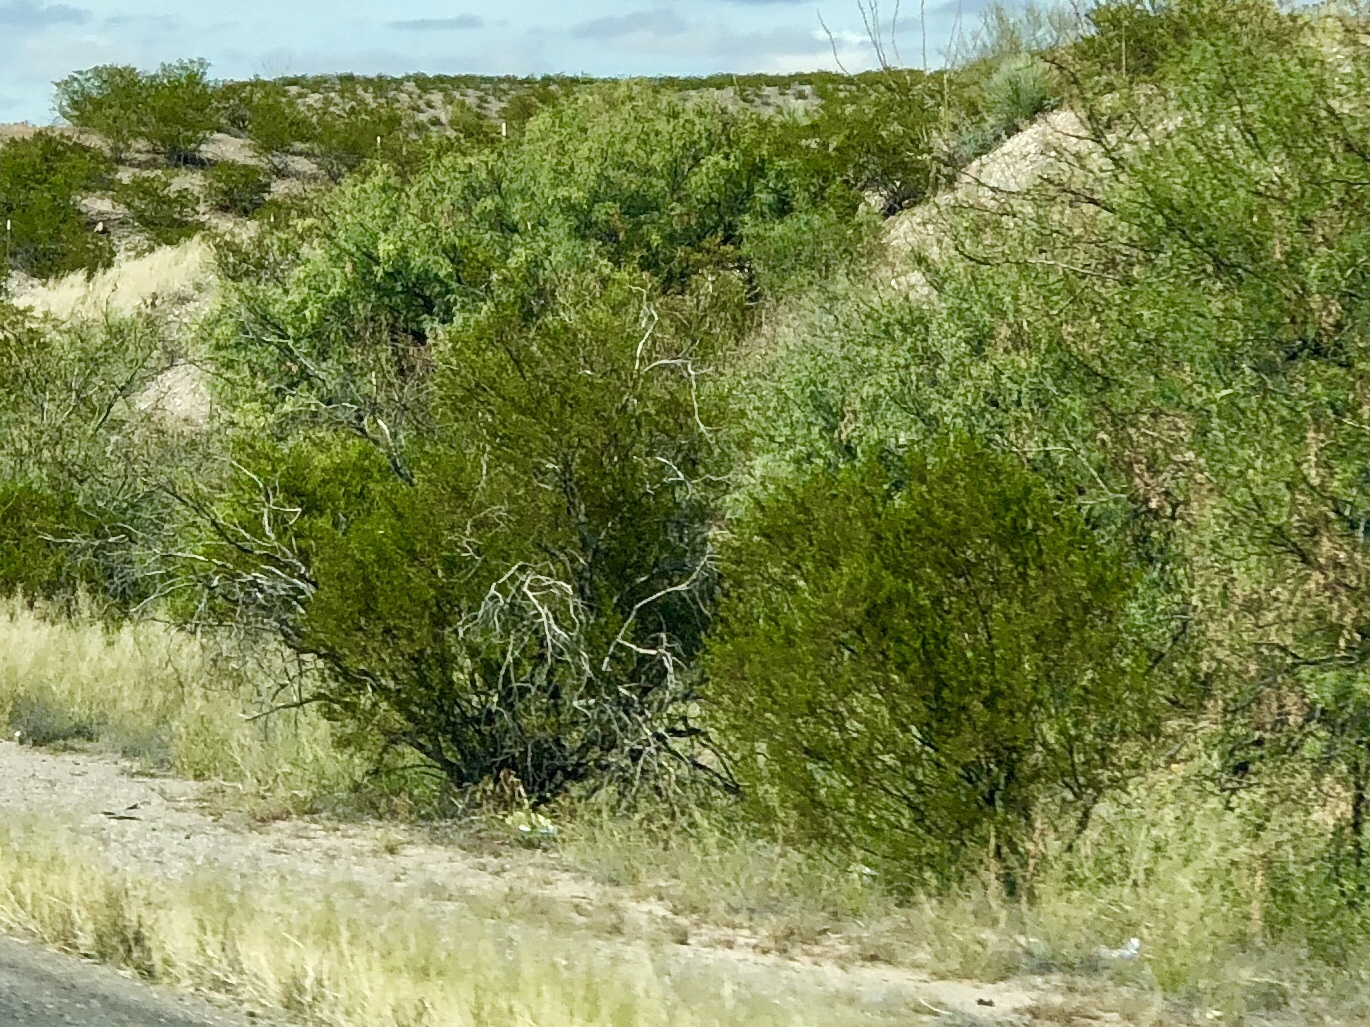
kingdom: Plantae
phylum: Tracheophyta
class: Magnoliopsida
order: Zygophyllales
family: Zygophyllaceae
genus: Larrea
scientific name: Larrea tridentata
